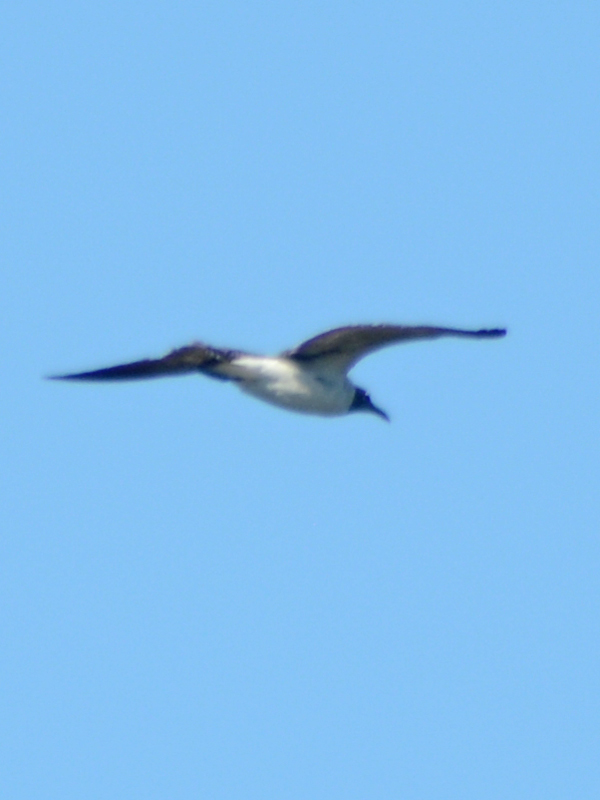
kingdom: Animalia
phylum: Chordata
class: Aves
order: Charadriiformes
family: Laridae
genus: Leucophaeus
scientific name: Leucophaeus atricilla
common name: Laughing gull
